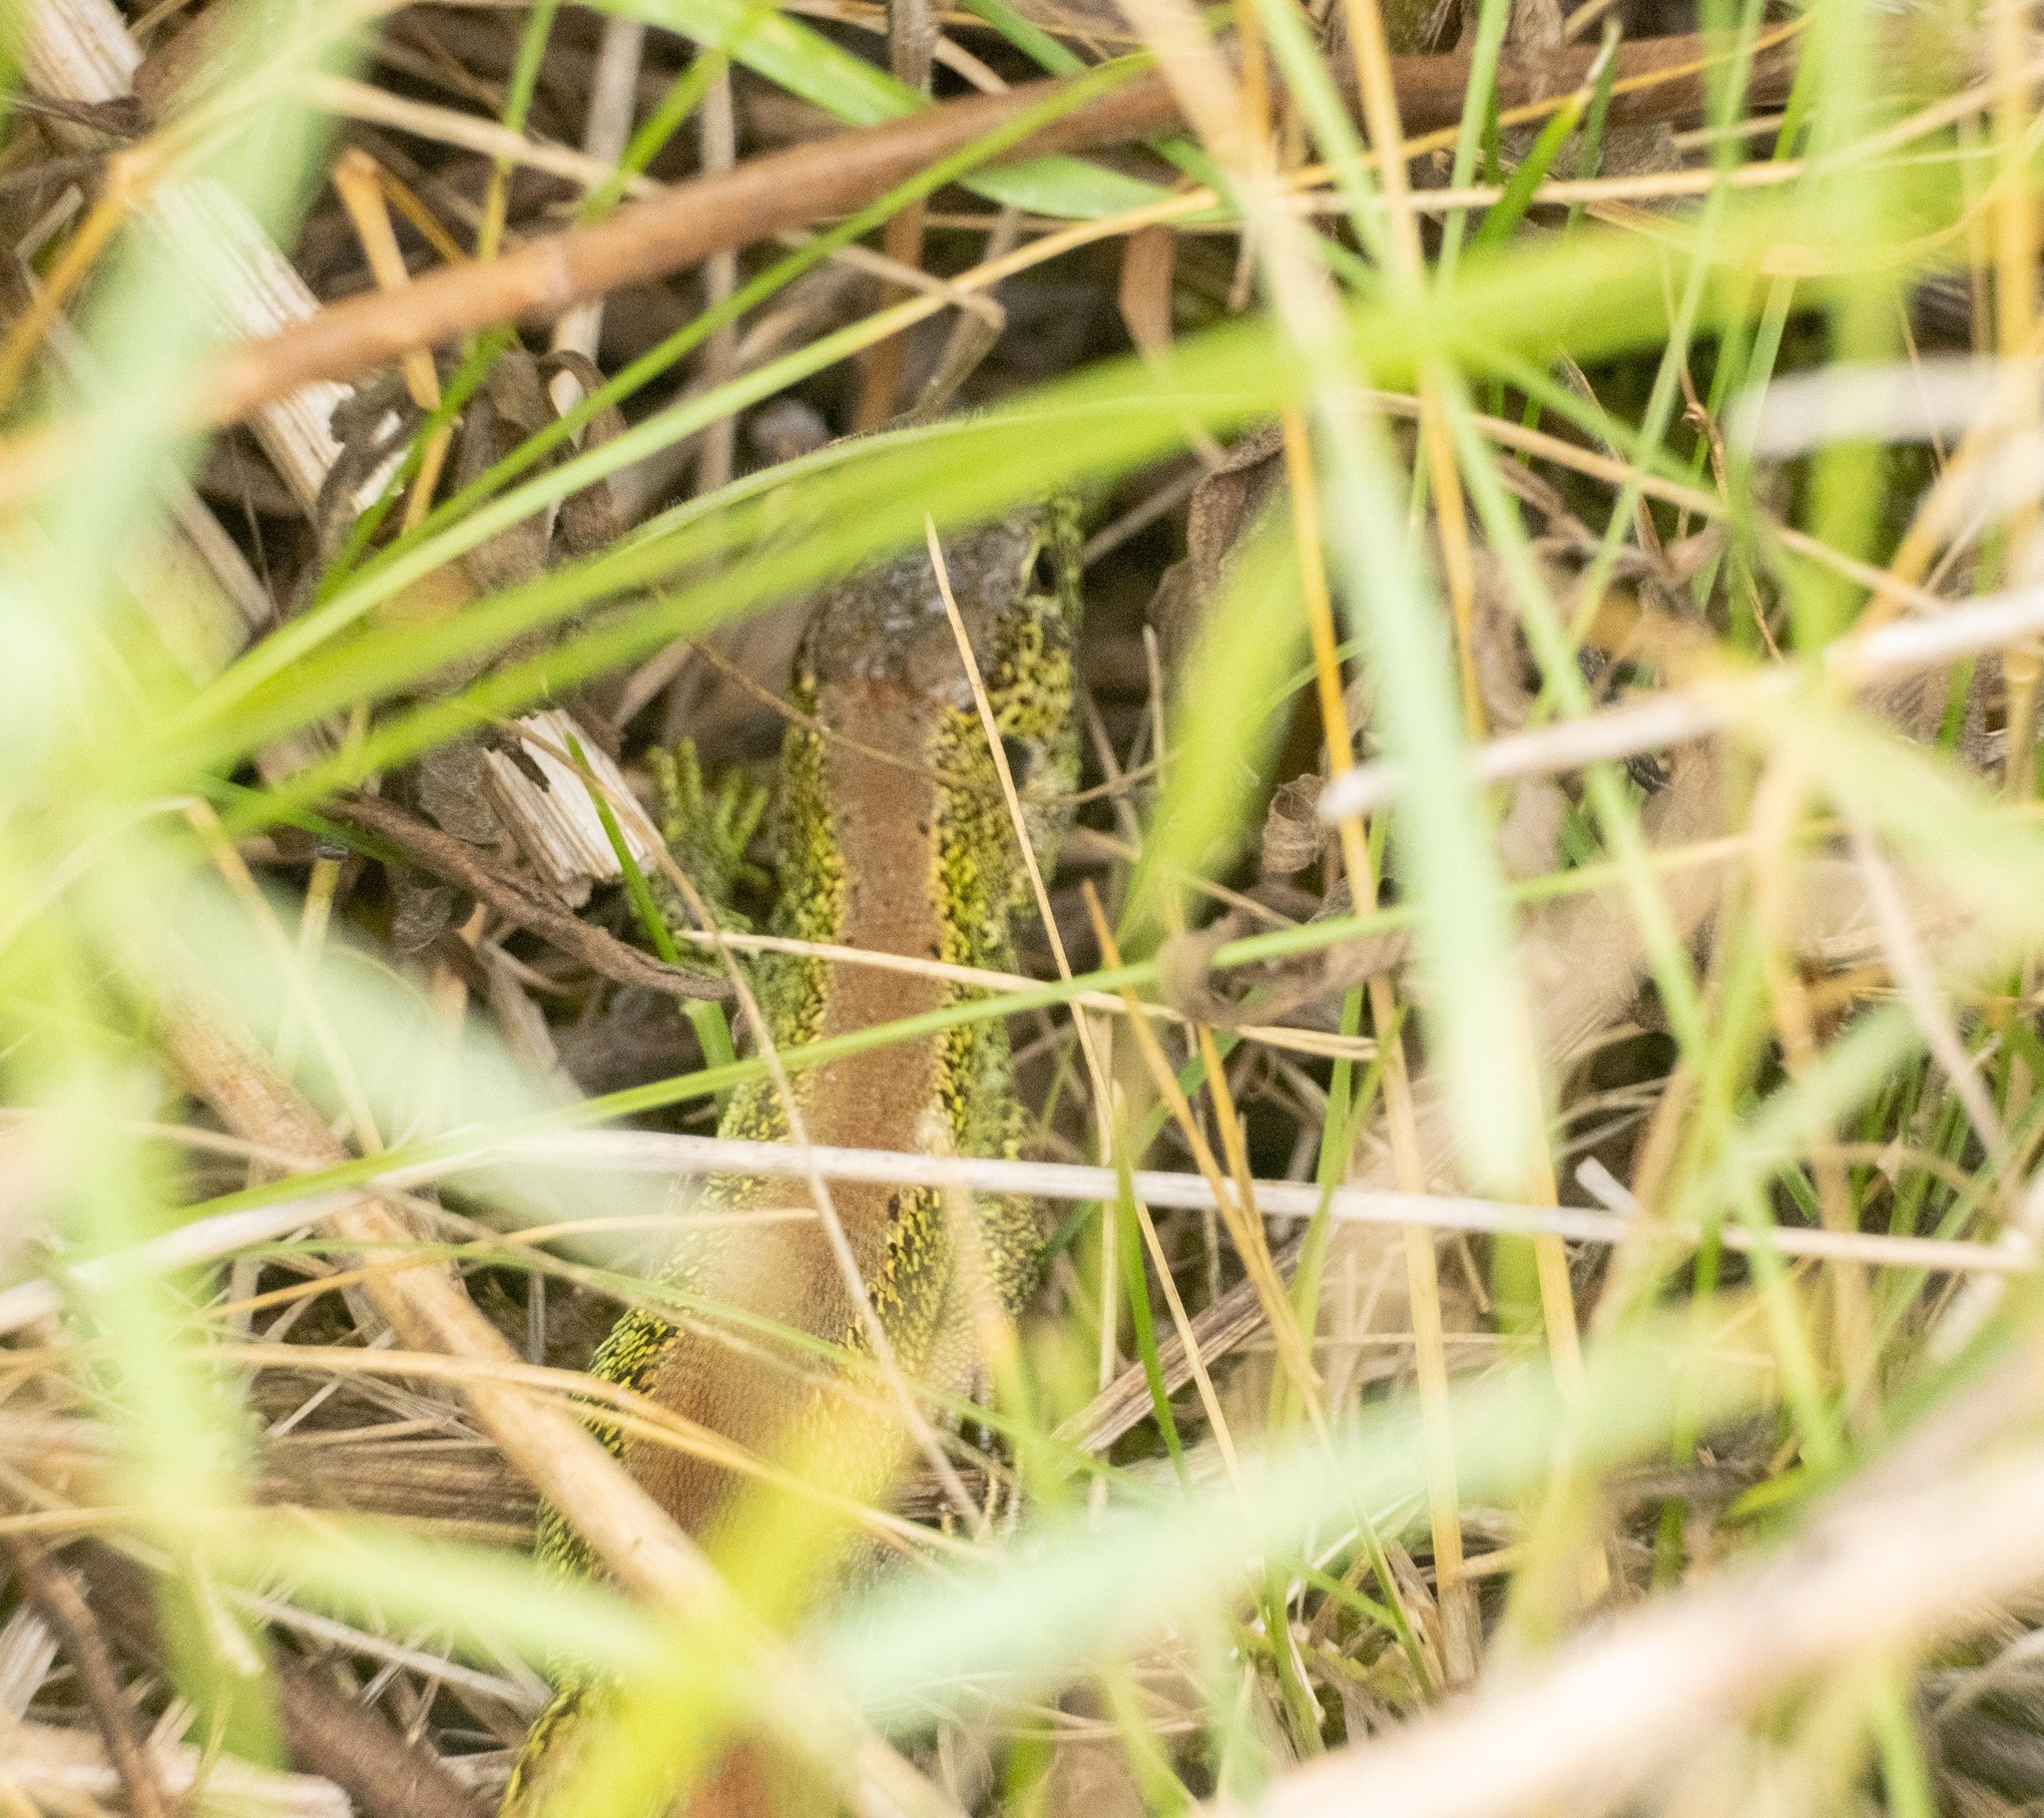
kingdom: Animalia
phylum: Chordata
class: Squamata
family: Lacertidae
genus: Lacerta
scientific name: Lacerta agilis
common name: Sand lizard
